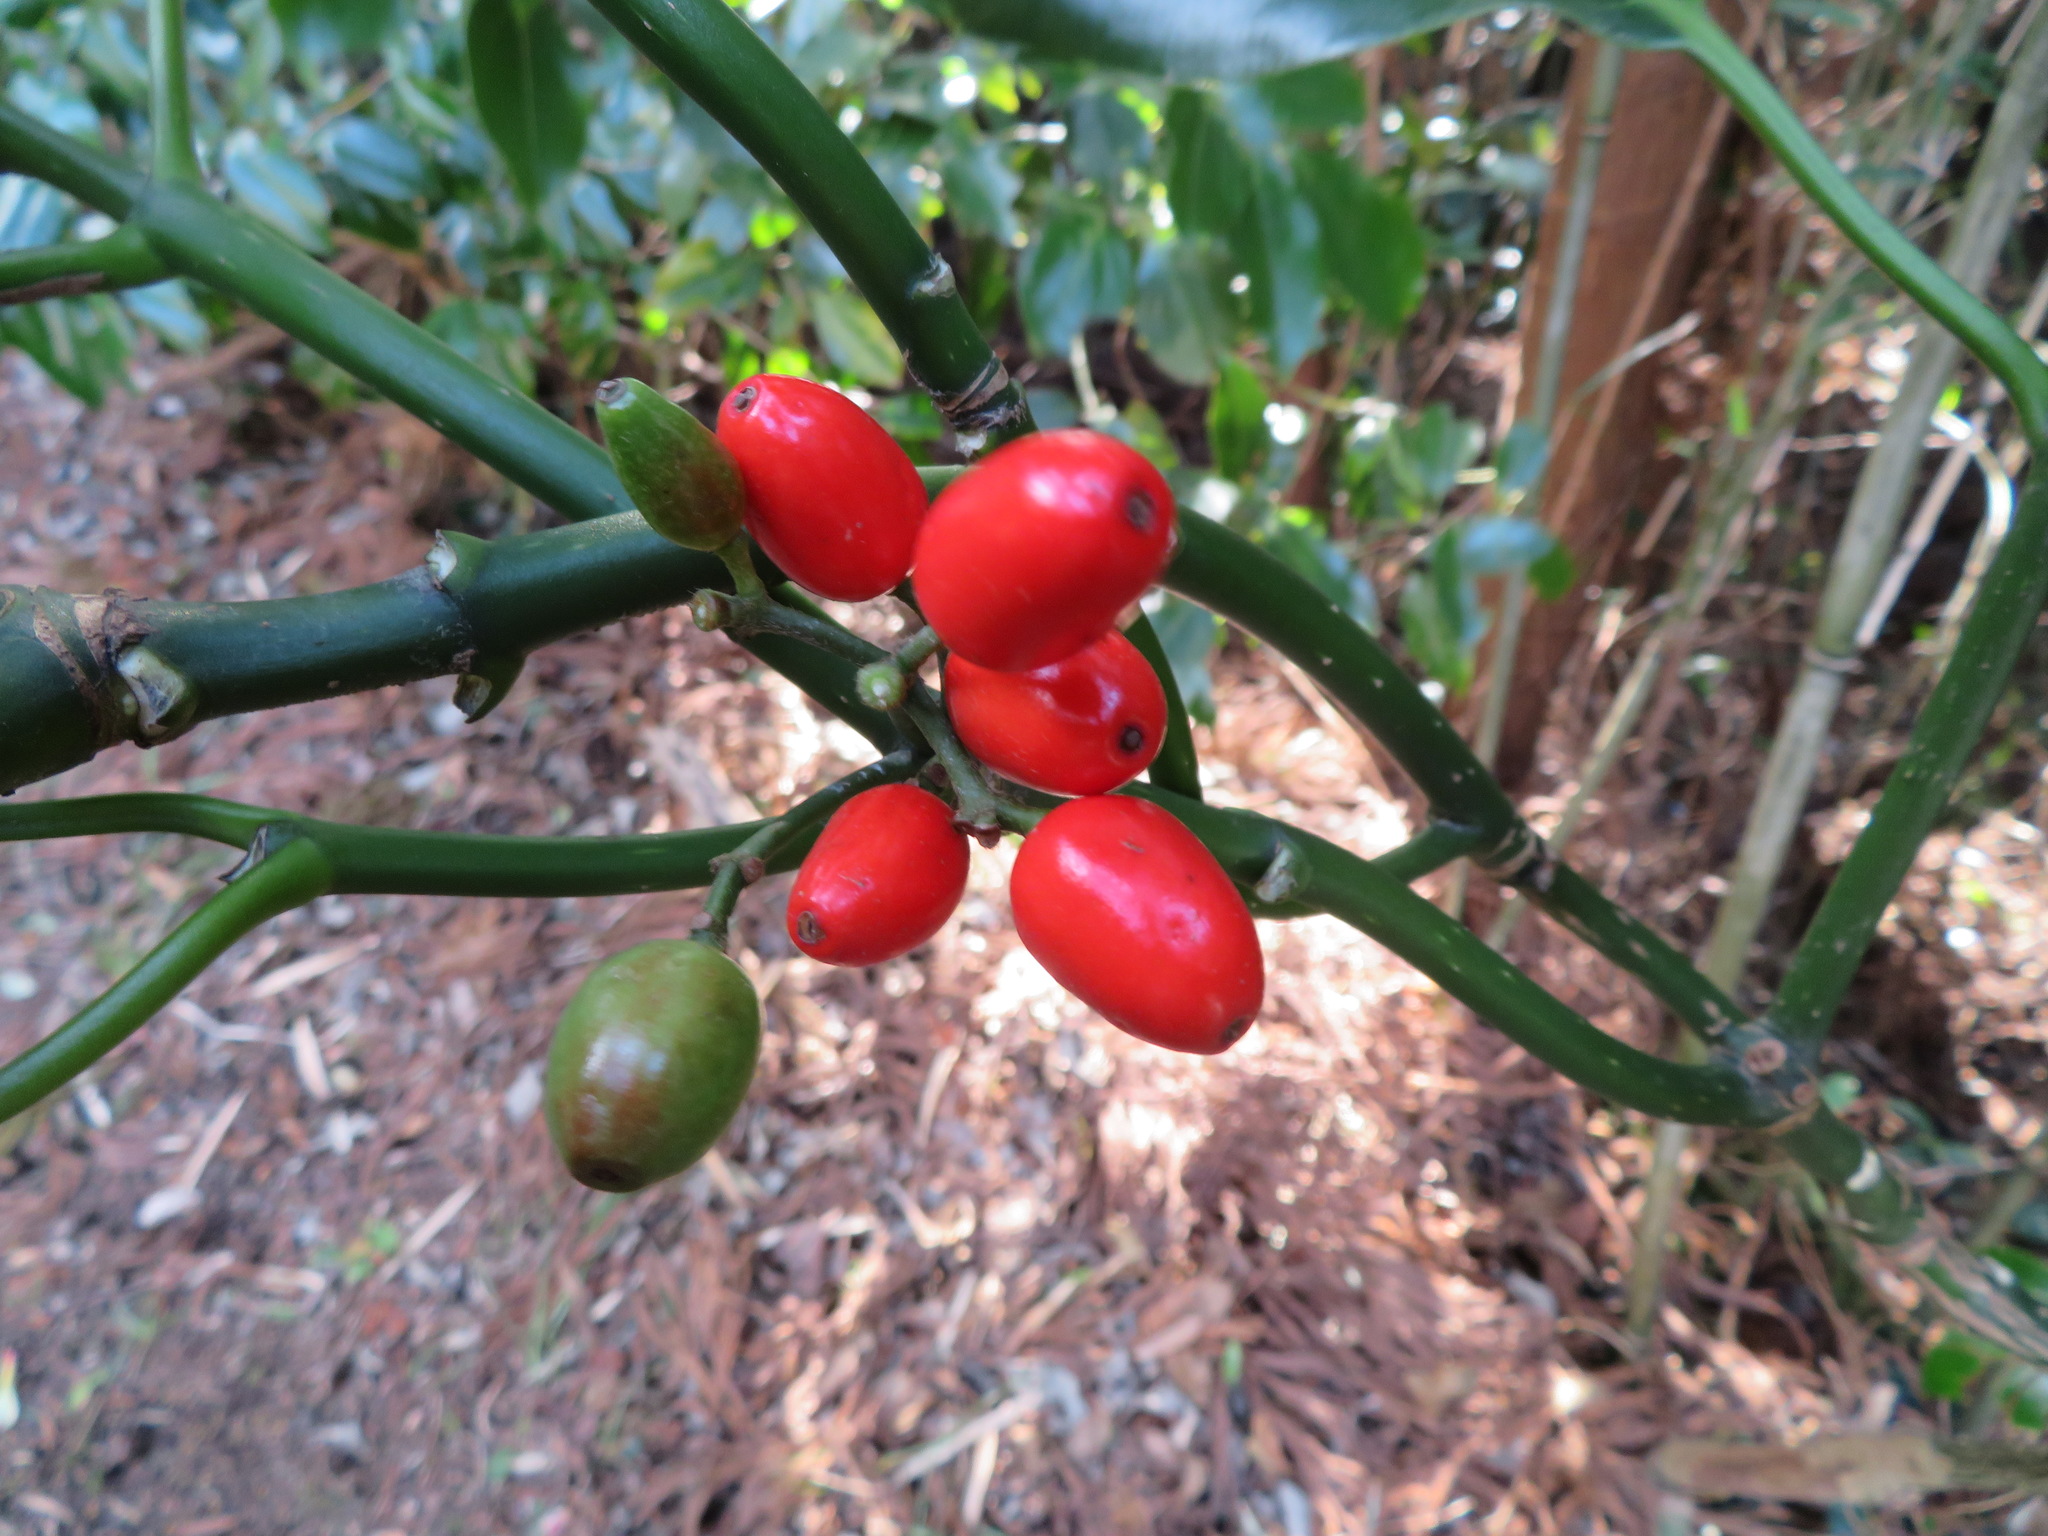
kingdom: Plantae
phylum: Tracheophyta
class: Magnoliopsida
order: Garryales
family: Garryaceae
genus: Aucuba
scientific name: Aucuba japonica
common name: Spotted-laurel
